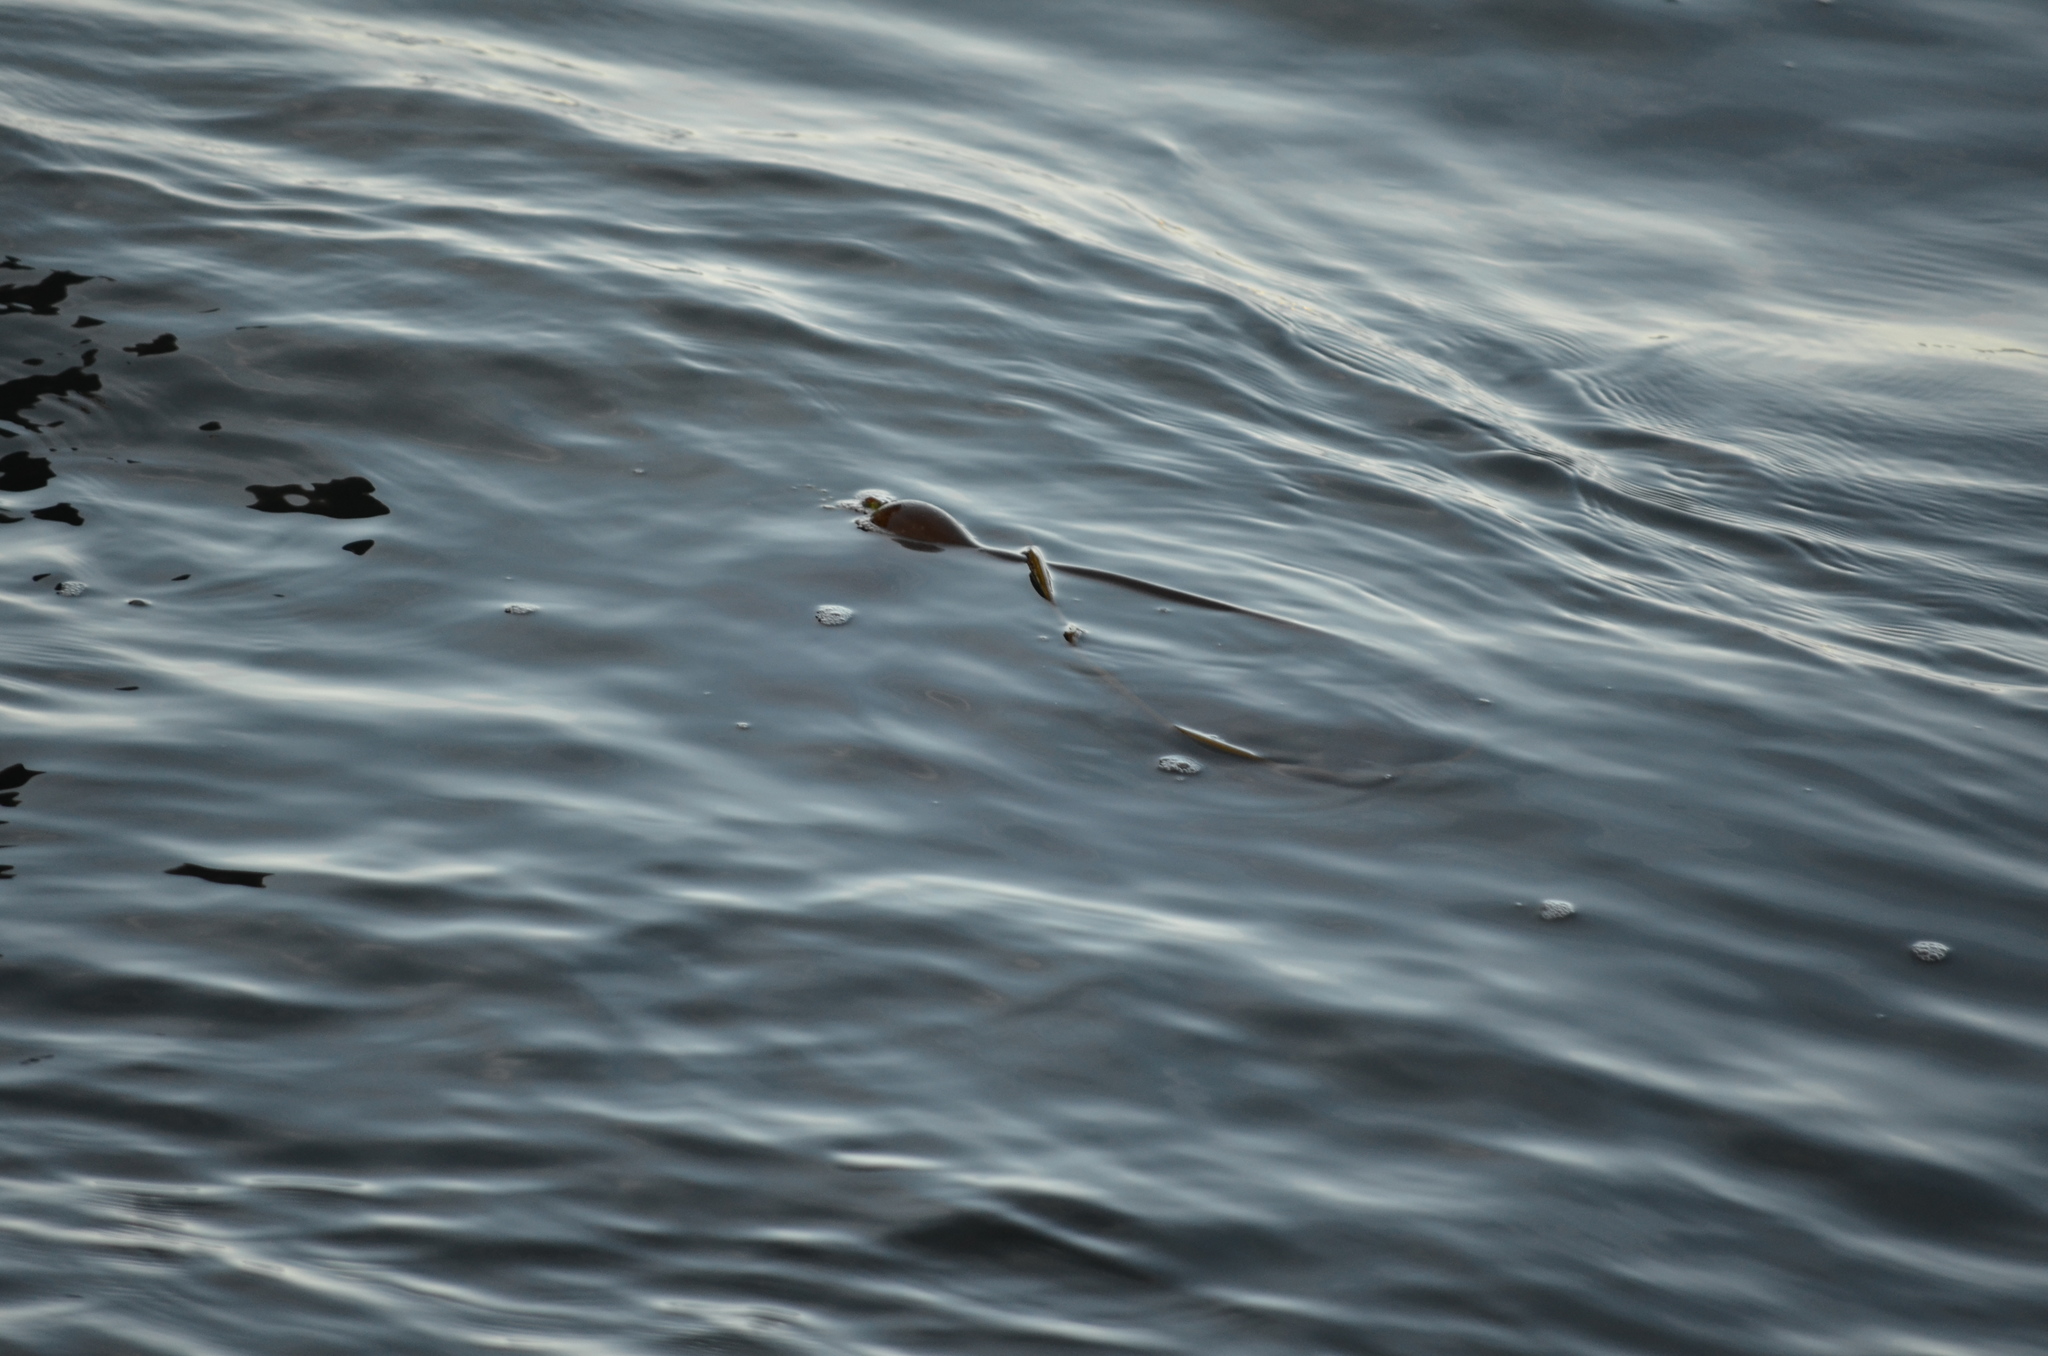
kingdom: Chromista
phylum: Ochrophyta
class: Phaeophyceae
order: Laminariales
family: Laminariaceae
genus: Nereocystis
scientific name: Nereocystis luetkeana
